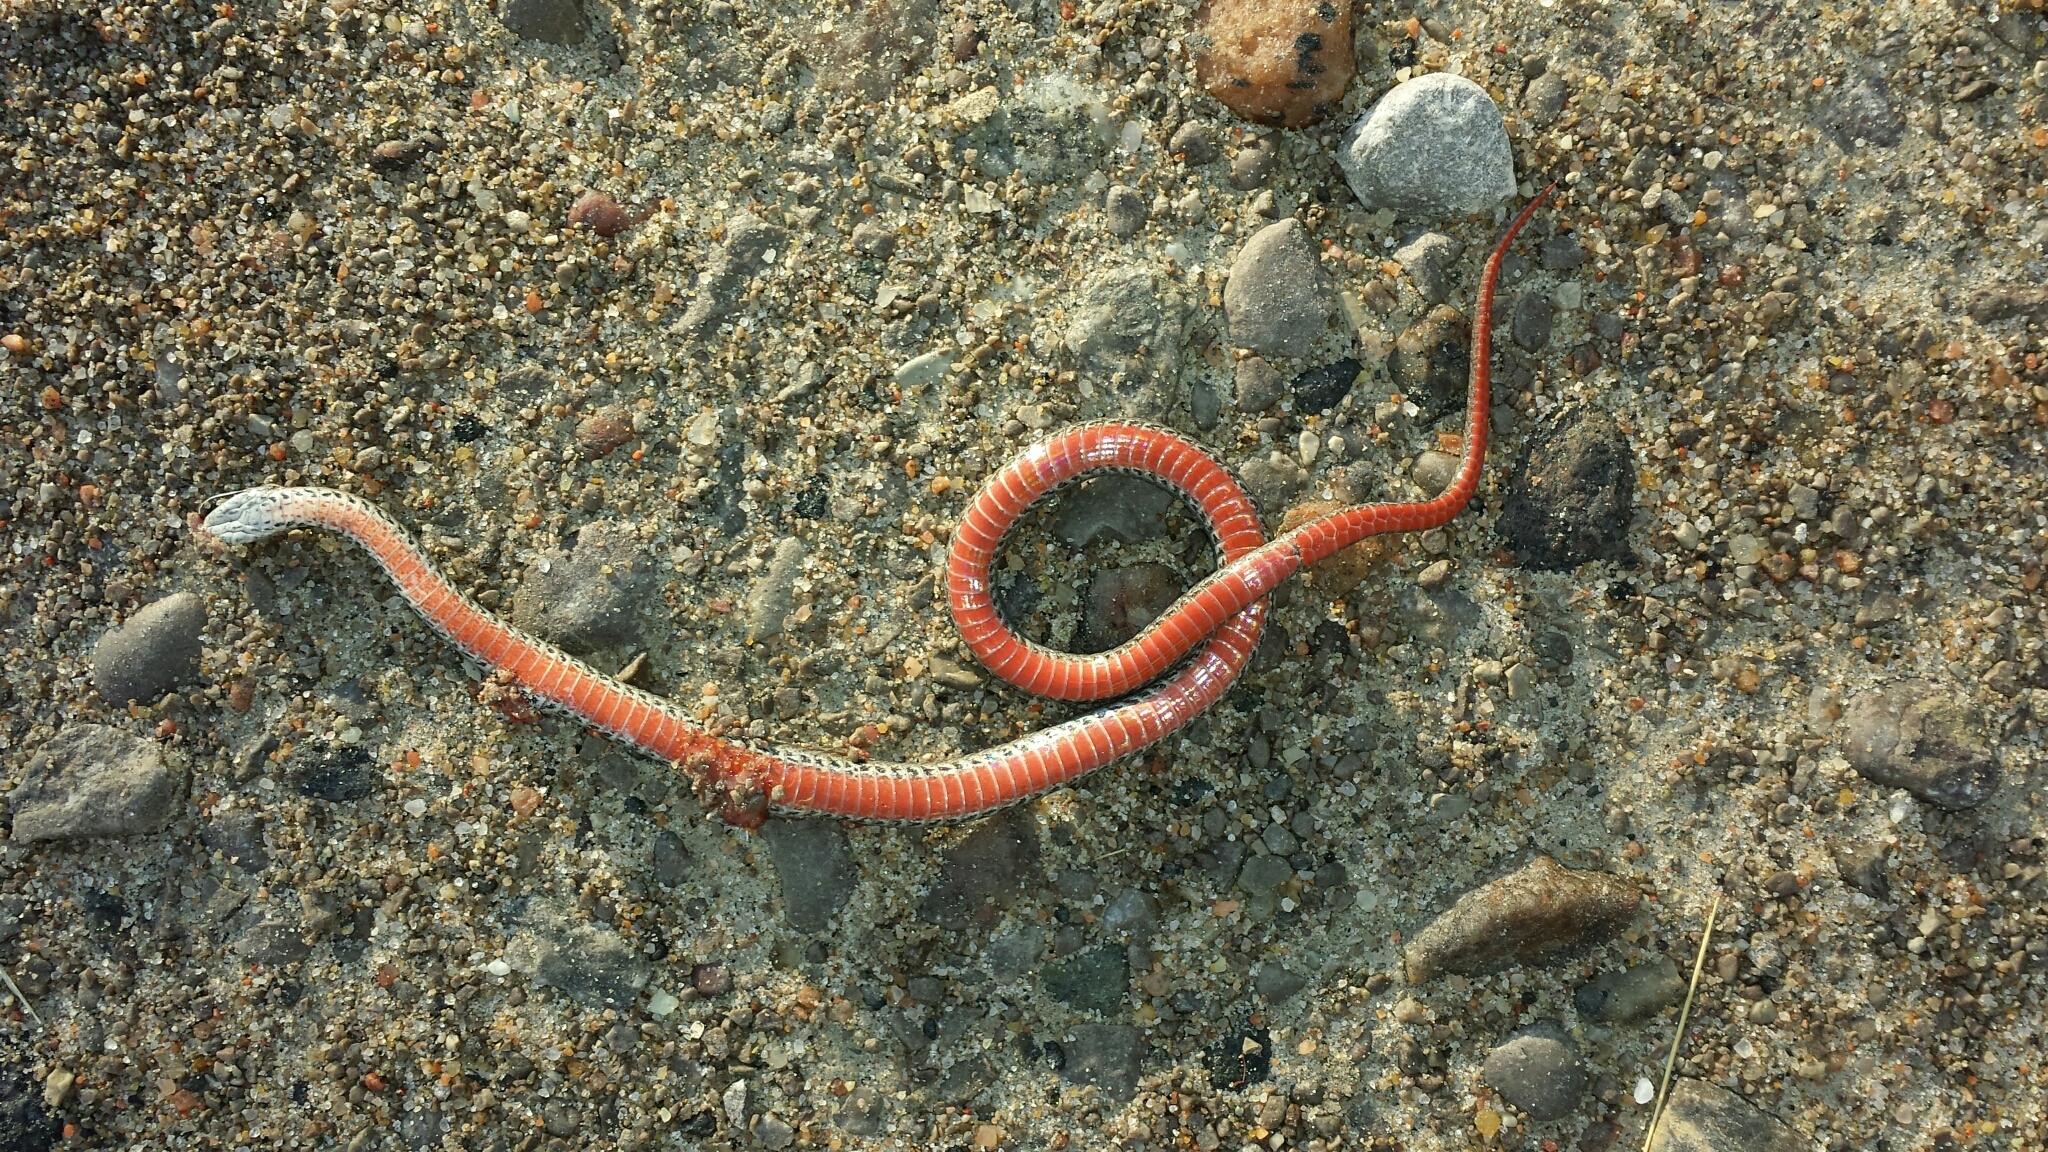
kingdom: Animalia
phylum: Chordata
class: Squamata
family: Colubridae
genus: Storeria
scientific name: Storeria occipitomaculata
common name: Redbelly snake
